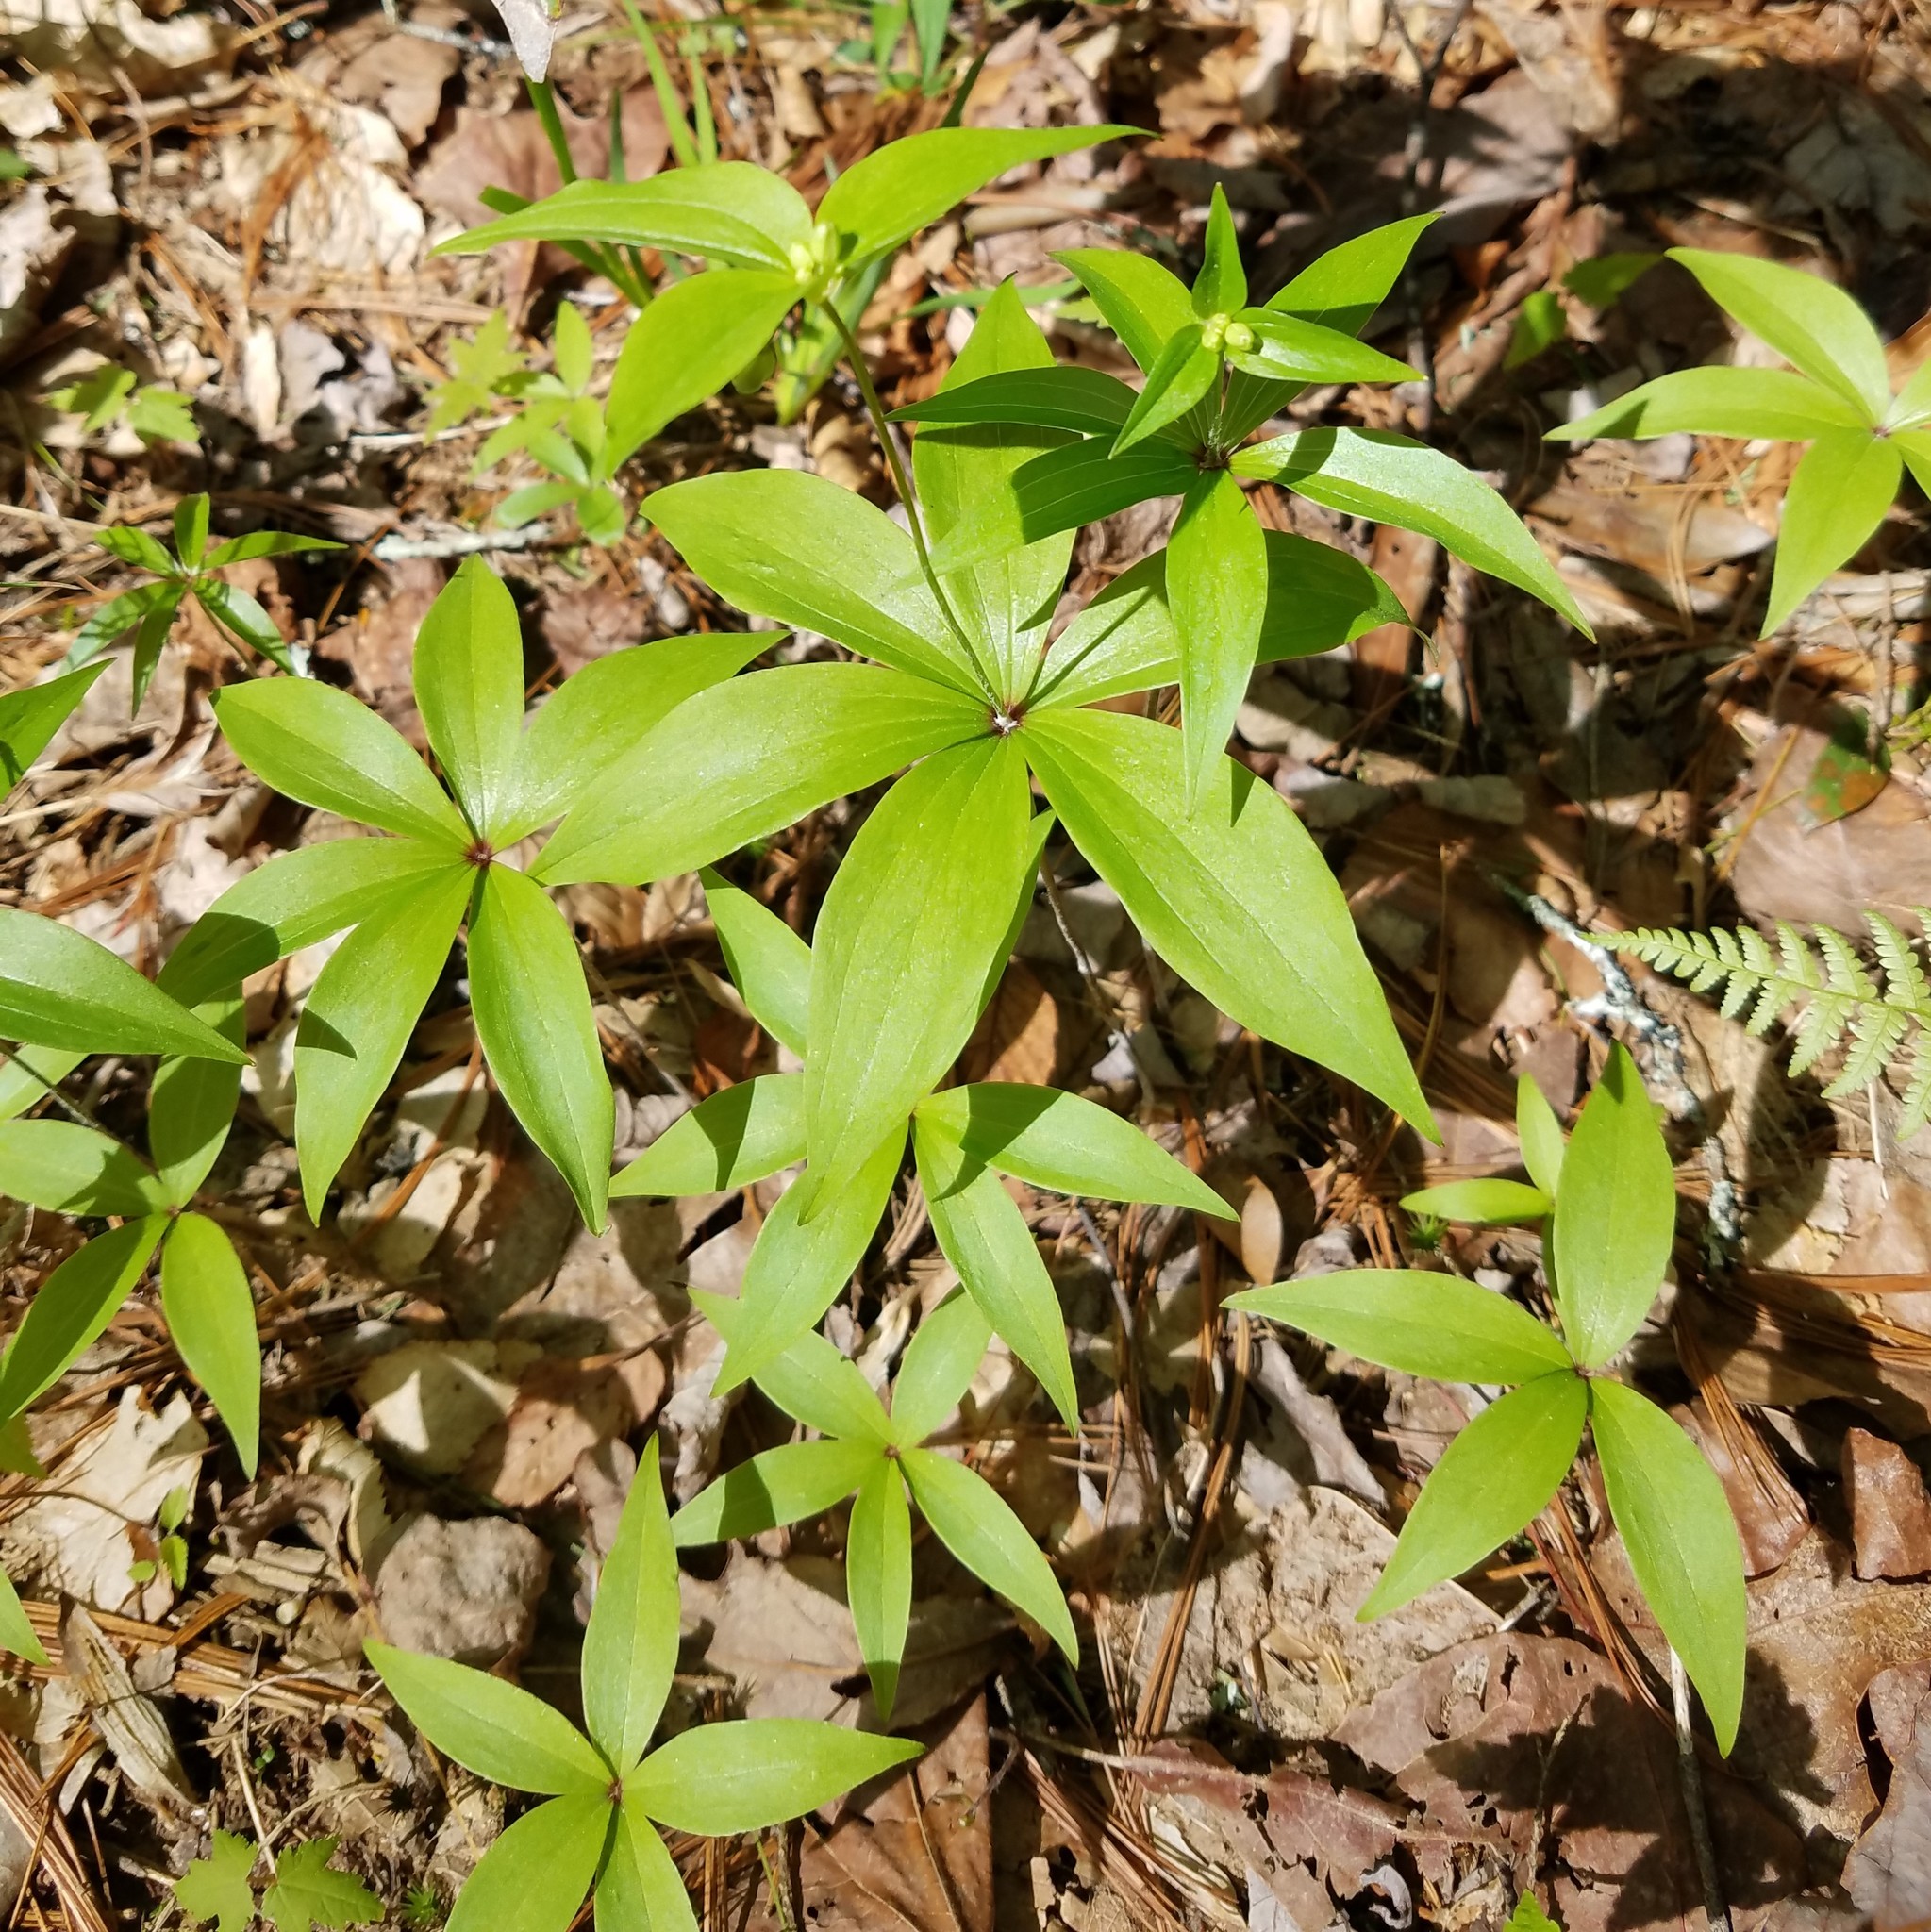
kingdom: Plantae
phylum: Tracheophyta
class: Liliopsida
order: Liliales
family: Liliaceae
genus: Medeola
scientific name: Medeola virginiana
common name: Indian cucumber-root
